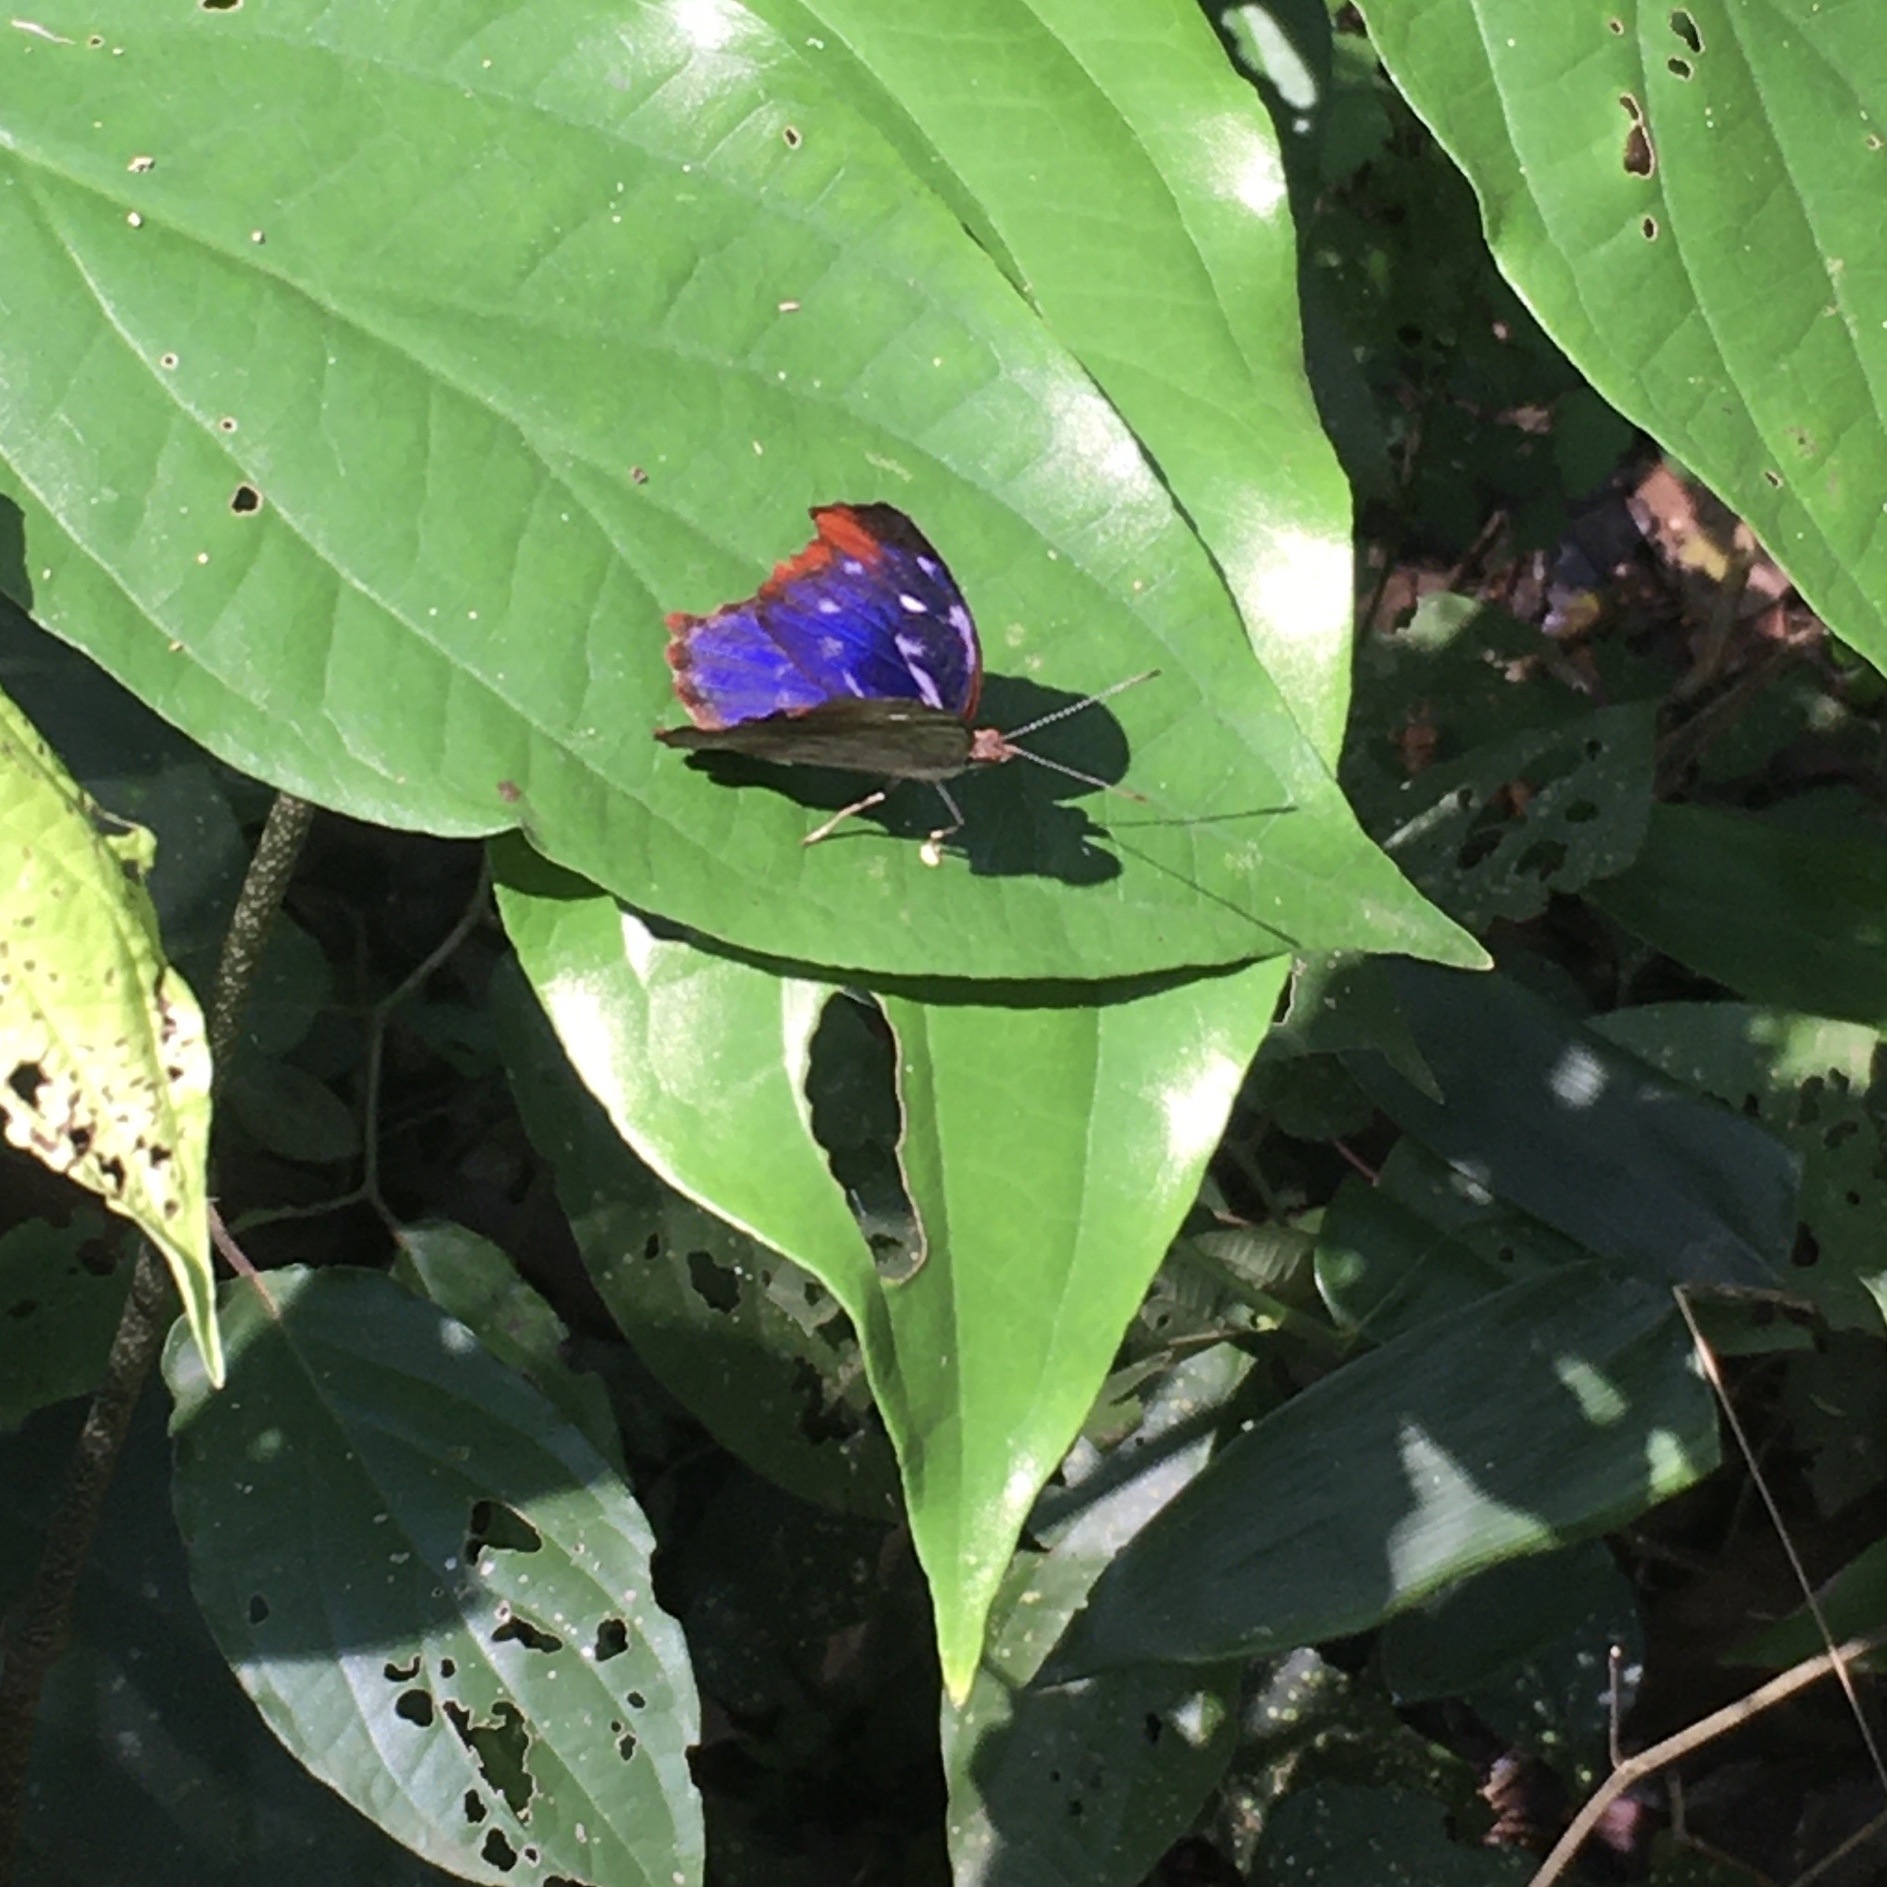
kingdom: Animalia
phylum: Arthropoda
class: Insecta
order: Lepidoptera
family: Nymphalidae
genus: Myscelia
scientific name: Myscelia orsis
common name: Orsis bluewing
